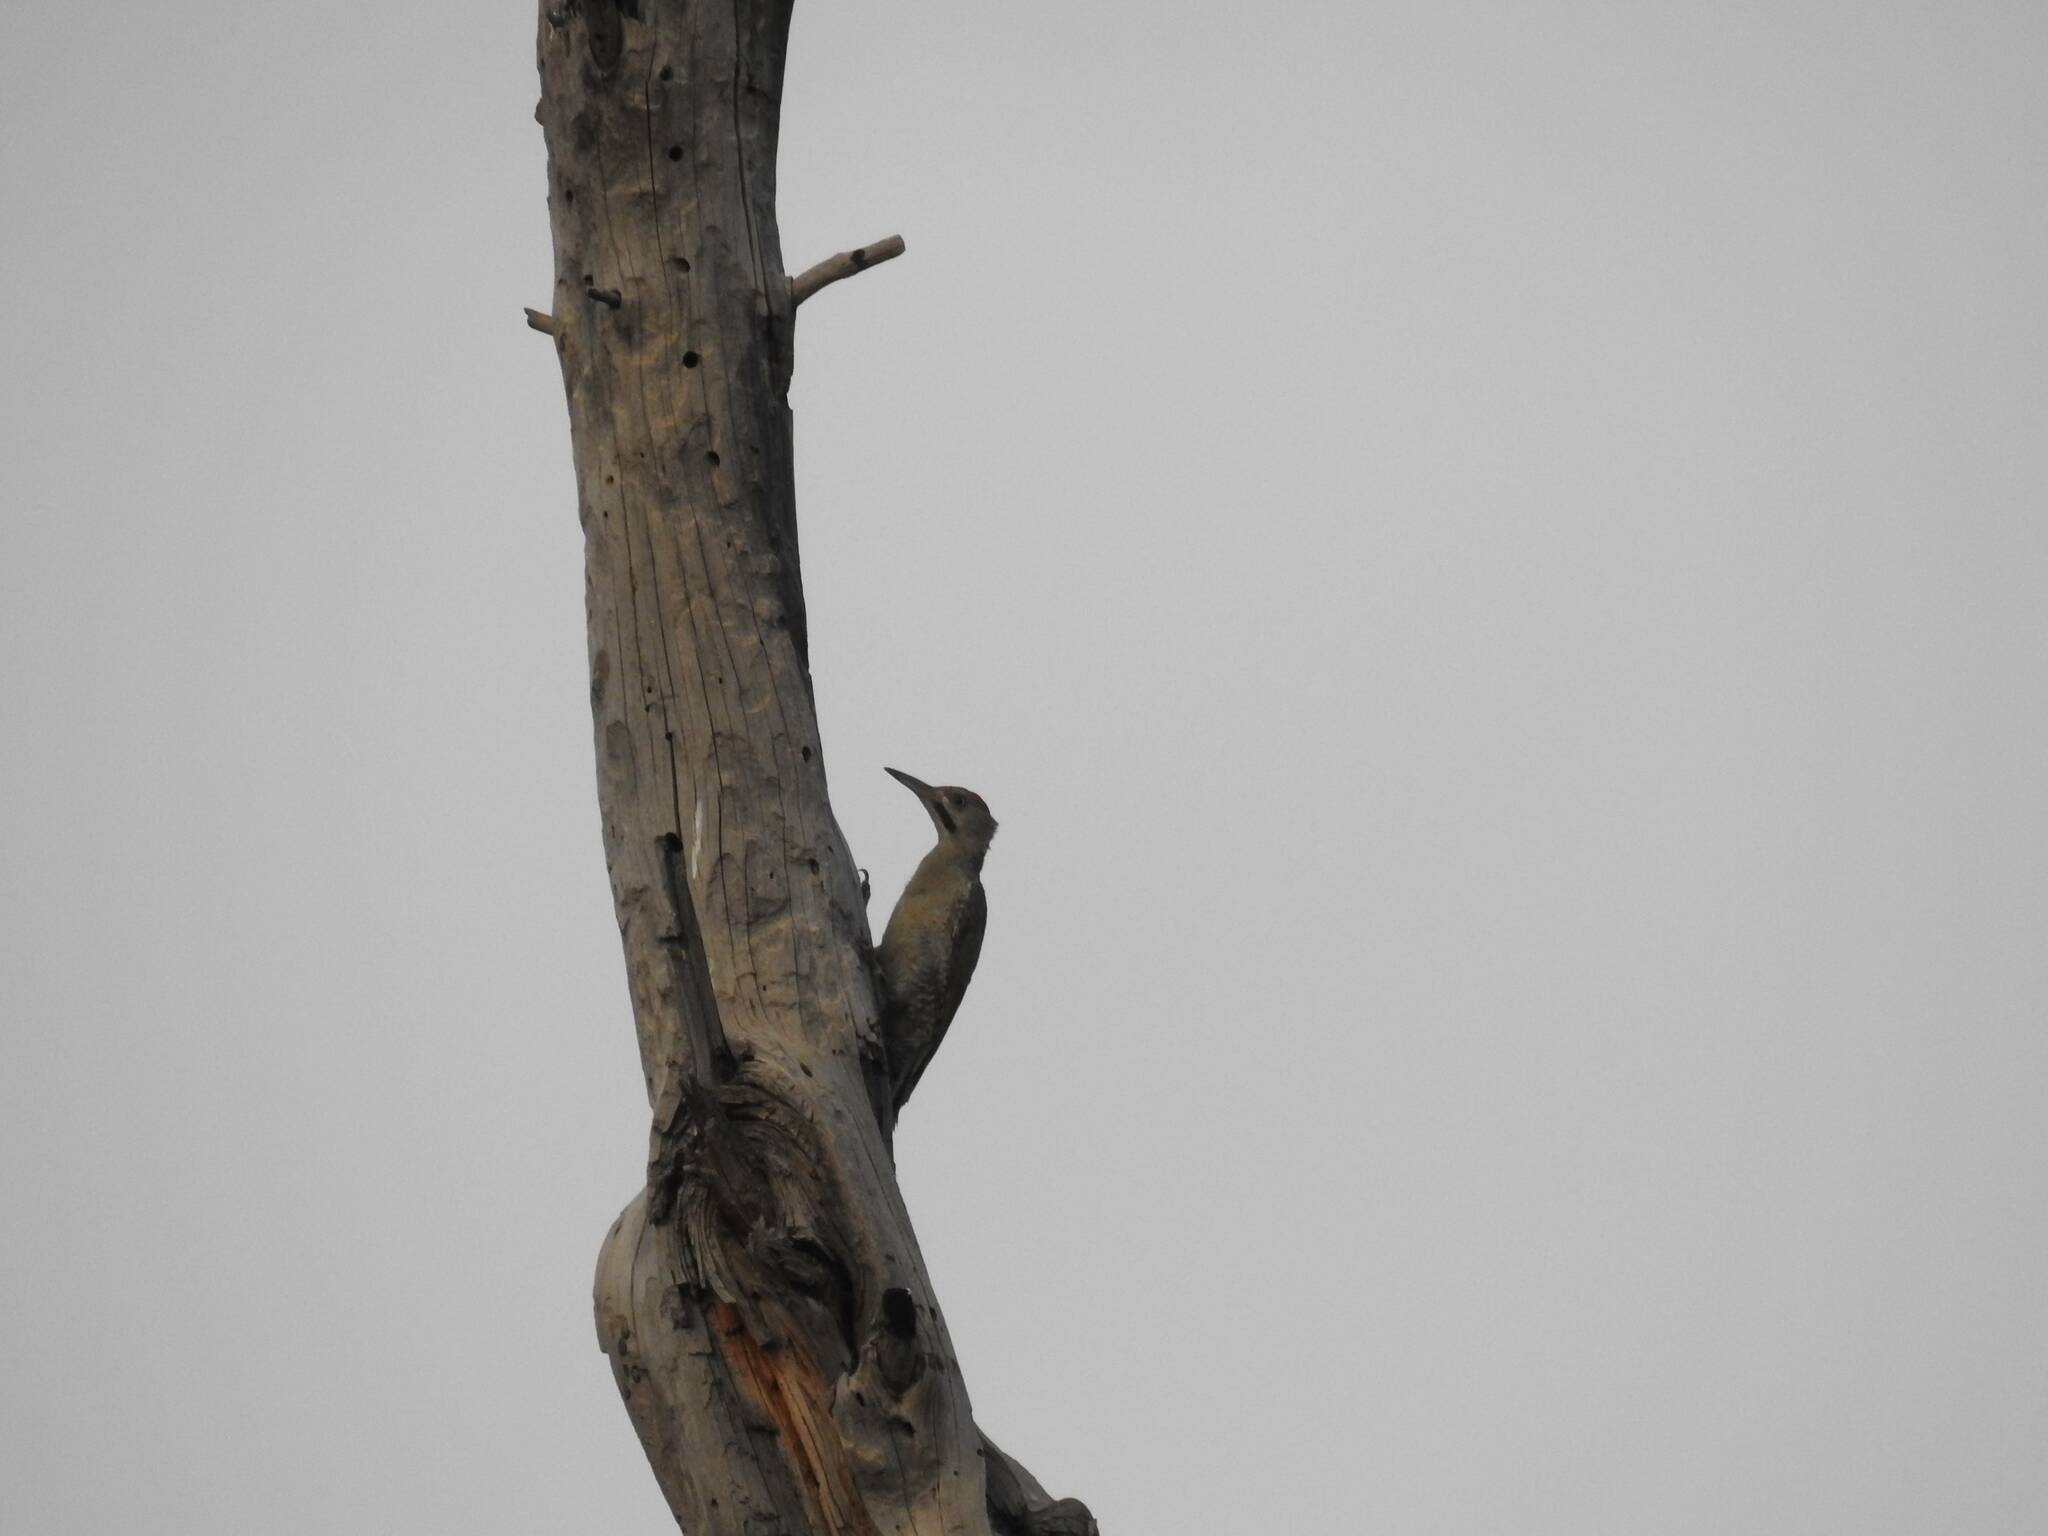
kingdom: Animalia
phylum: Chordata
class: Aves
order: Piciformes
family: Picidae
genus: Picus
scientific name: Picus vaillantii
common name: Levaillant's woodpecker
